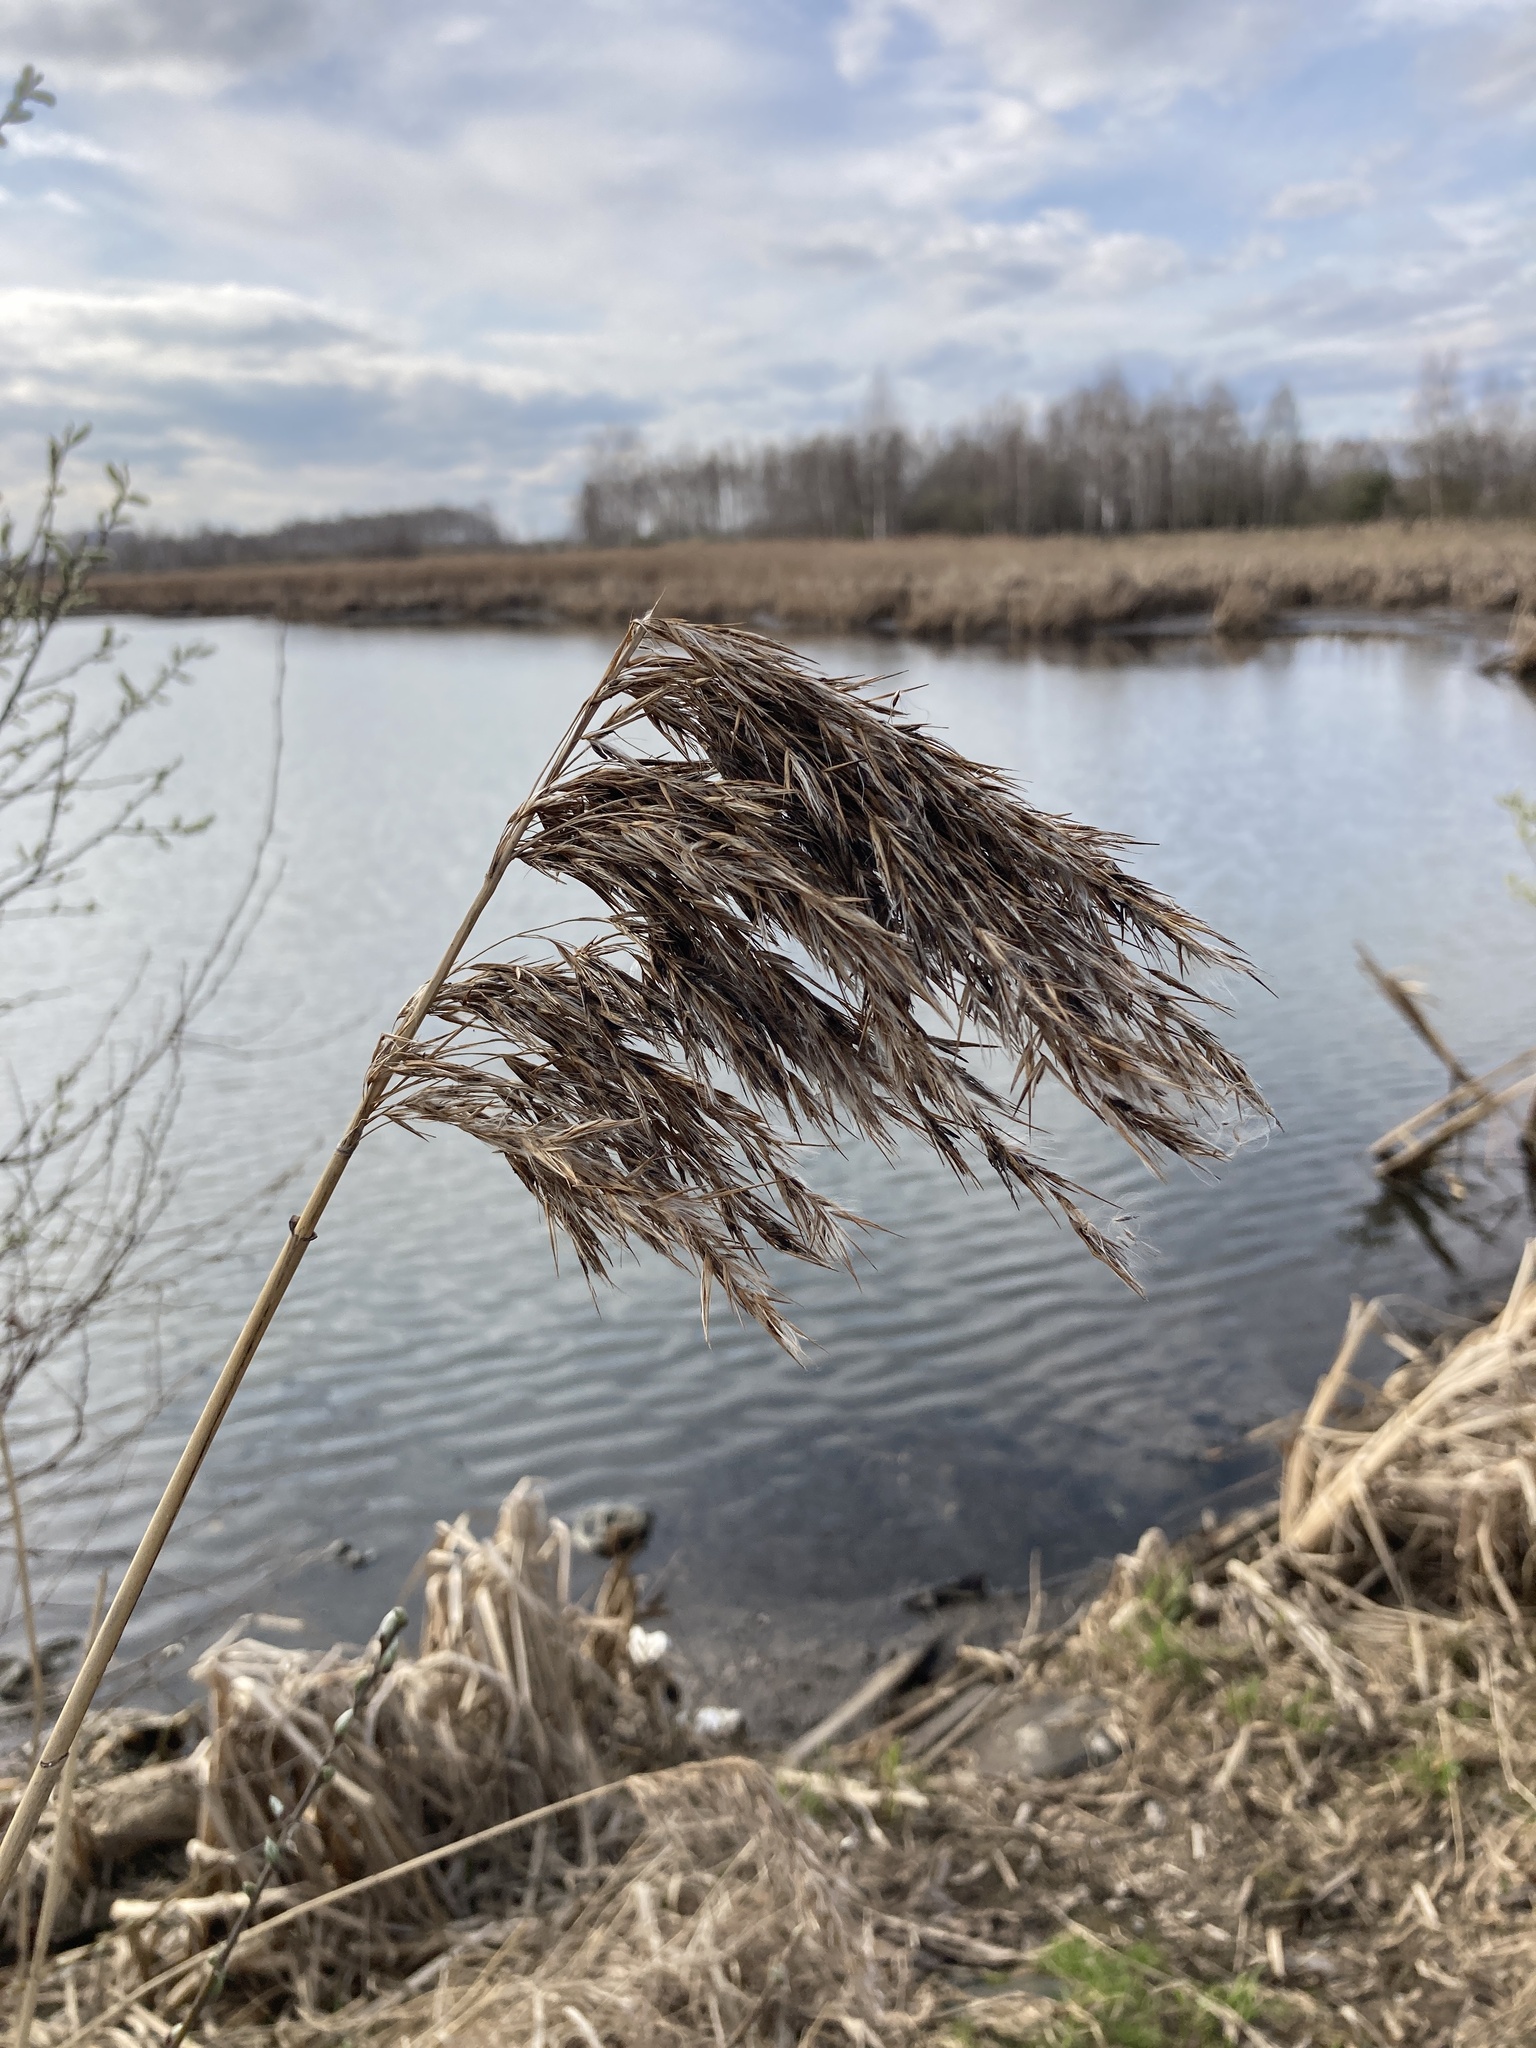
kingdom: Plantae
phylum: Tracheophyta
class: Liliopsida
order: Poales
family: Poaceae
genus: Phragmites
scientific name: Phragmites australis
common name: Common reed
